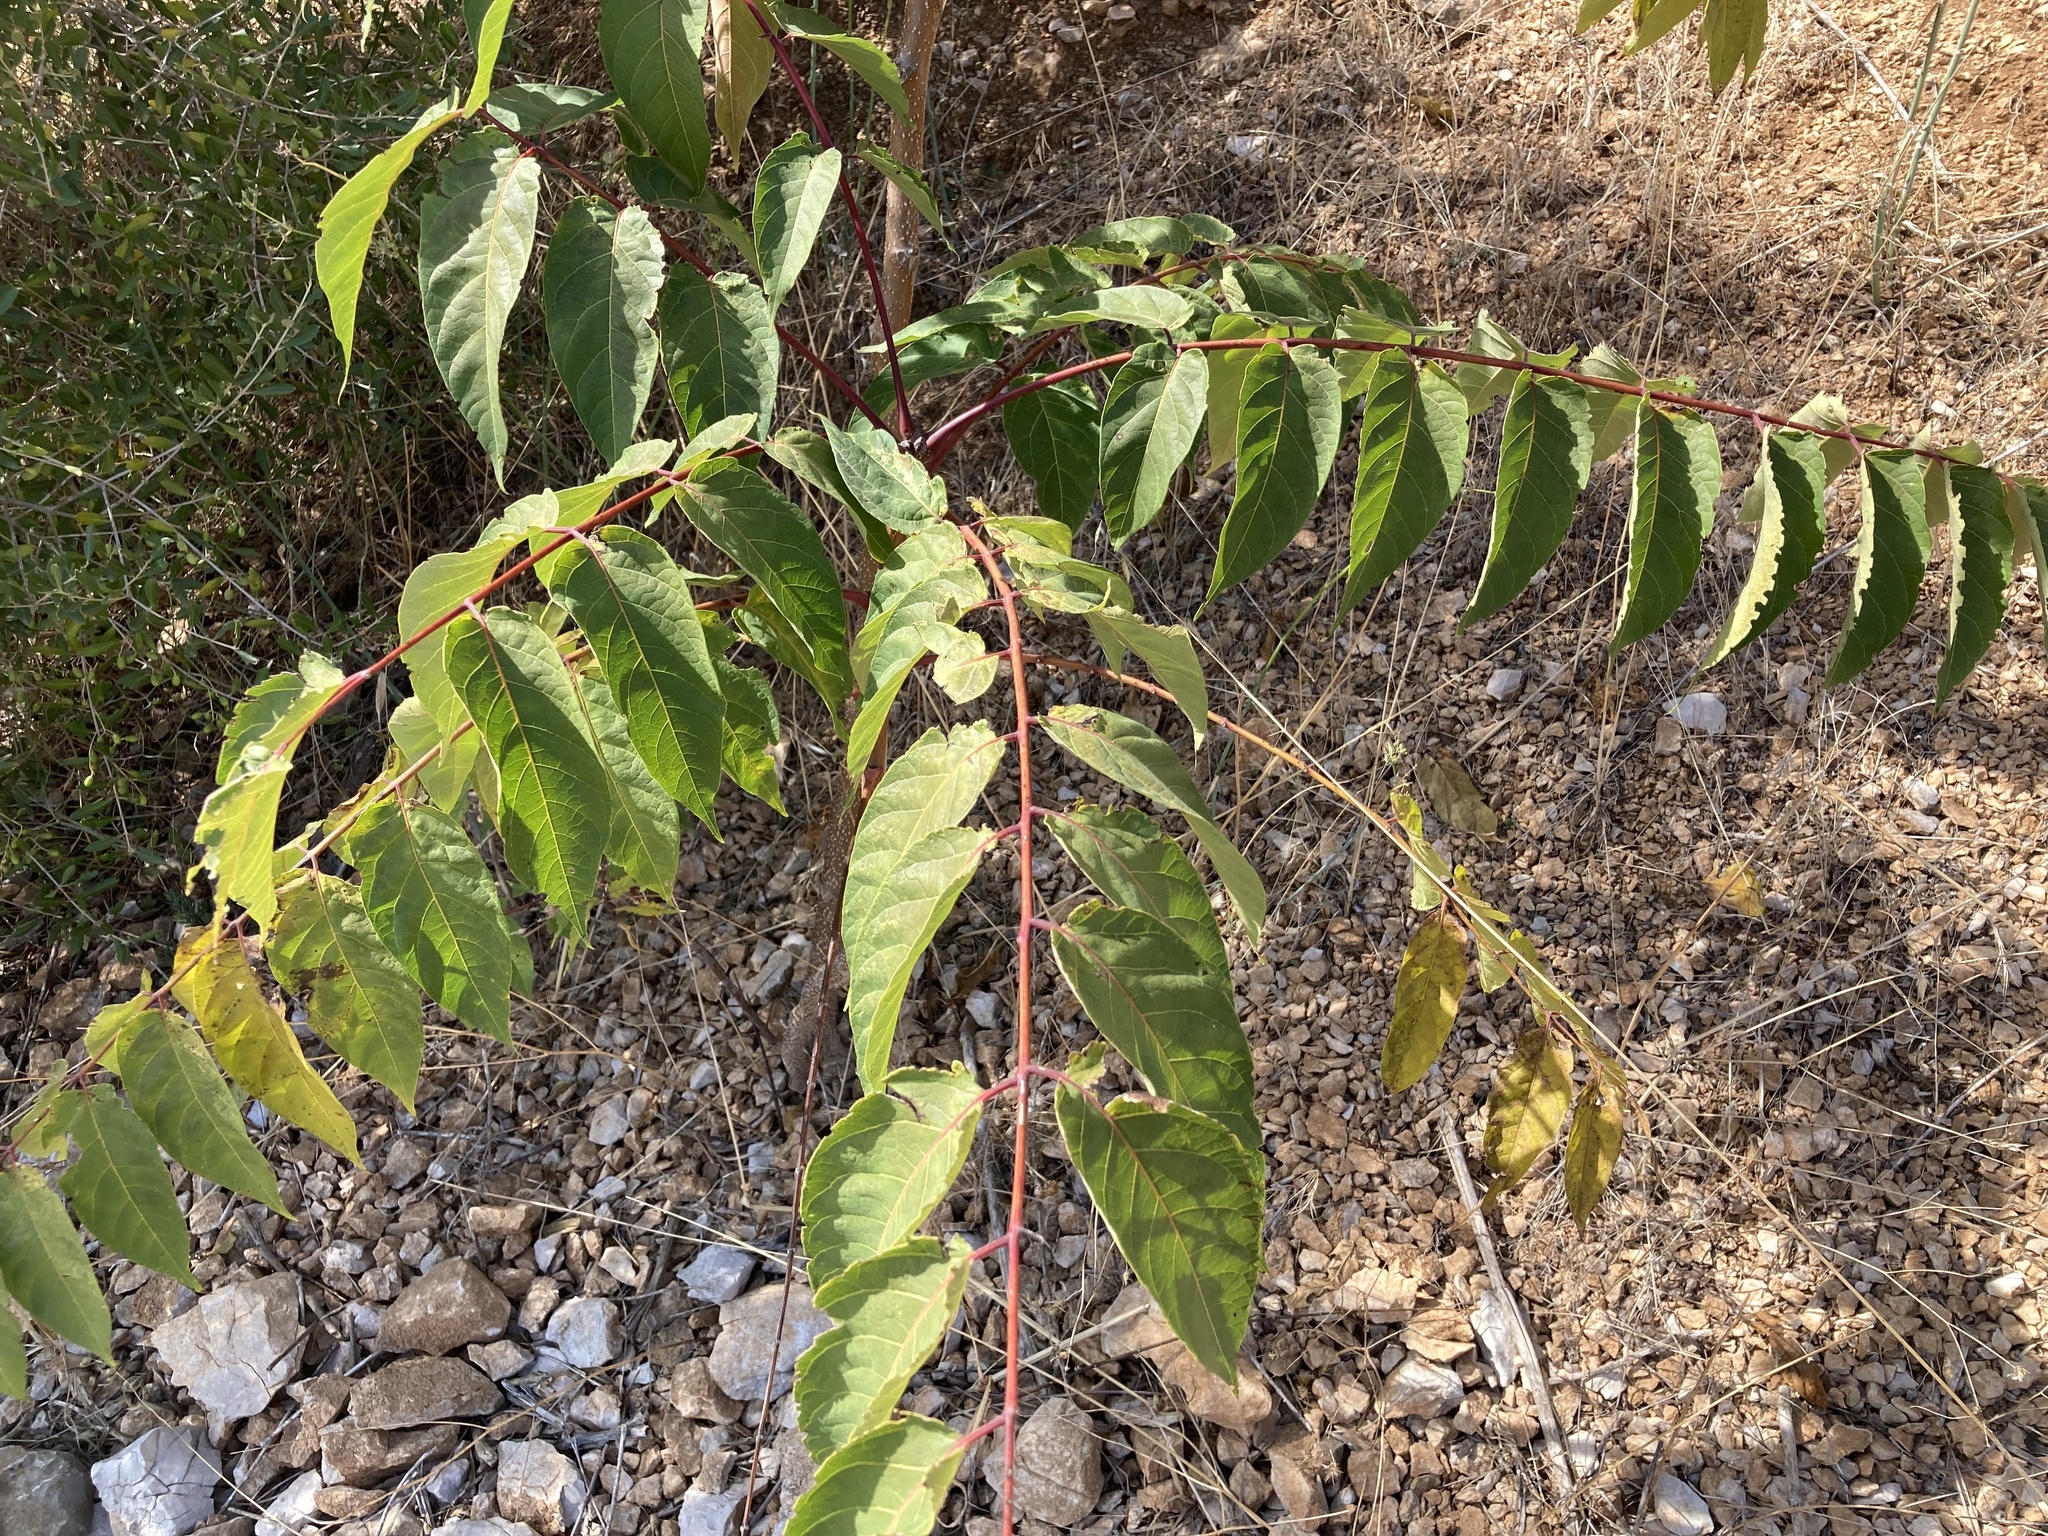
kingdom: Plantae
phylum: Tracheophyta
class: Magnoliopsida
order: Sapindales
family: Simaroubaceae
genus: Ailanthus
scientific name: Ailanthus altissima
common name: Tree-of-heaven
